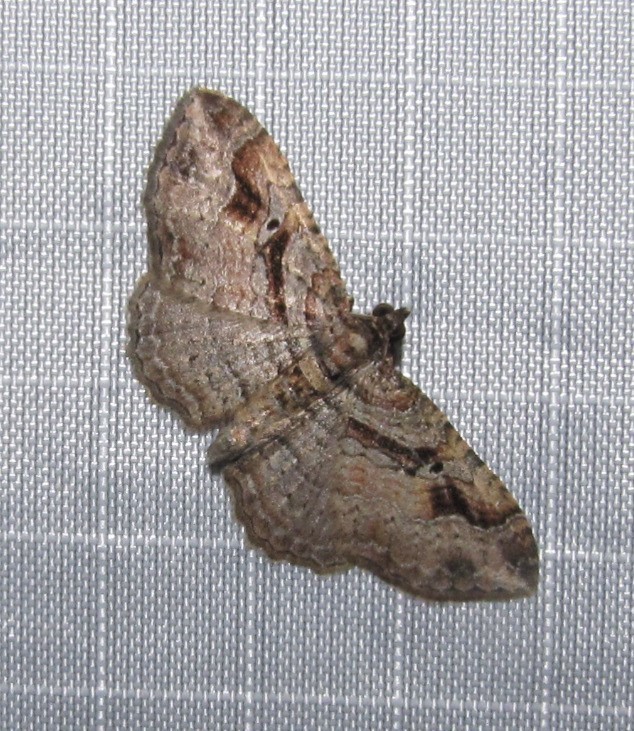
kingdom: Animalia
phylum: Arthropoda
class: Insecta
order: Lepidoptera
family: Geometridae
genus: Costaconvexa
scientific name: Costaconvexa centrostrigaria
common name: Bent-line carpet
